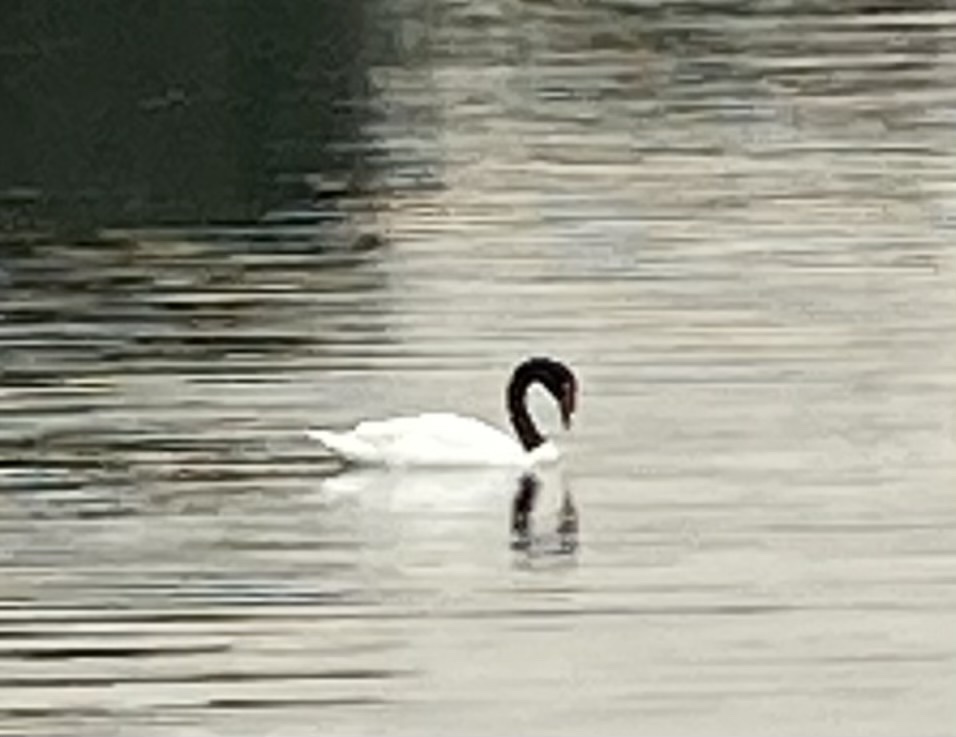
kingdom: Animalia
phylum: Chordata
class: Aves
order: Anseriformes
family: Anatidae
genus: Cygnus
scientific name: Cygnus melancoryphus
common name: Black-necked swan
